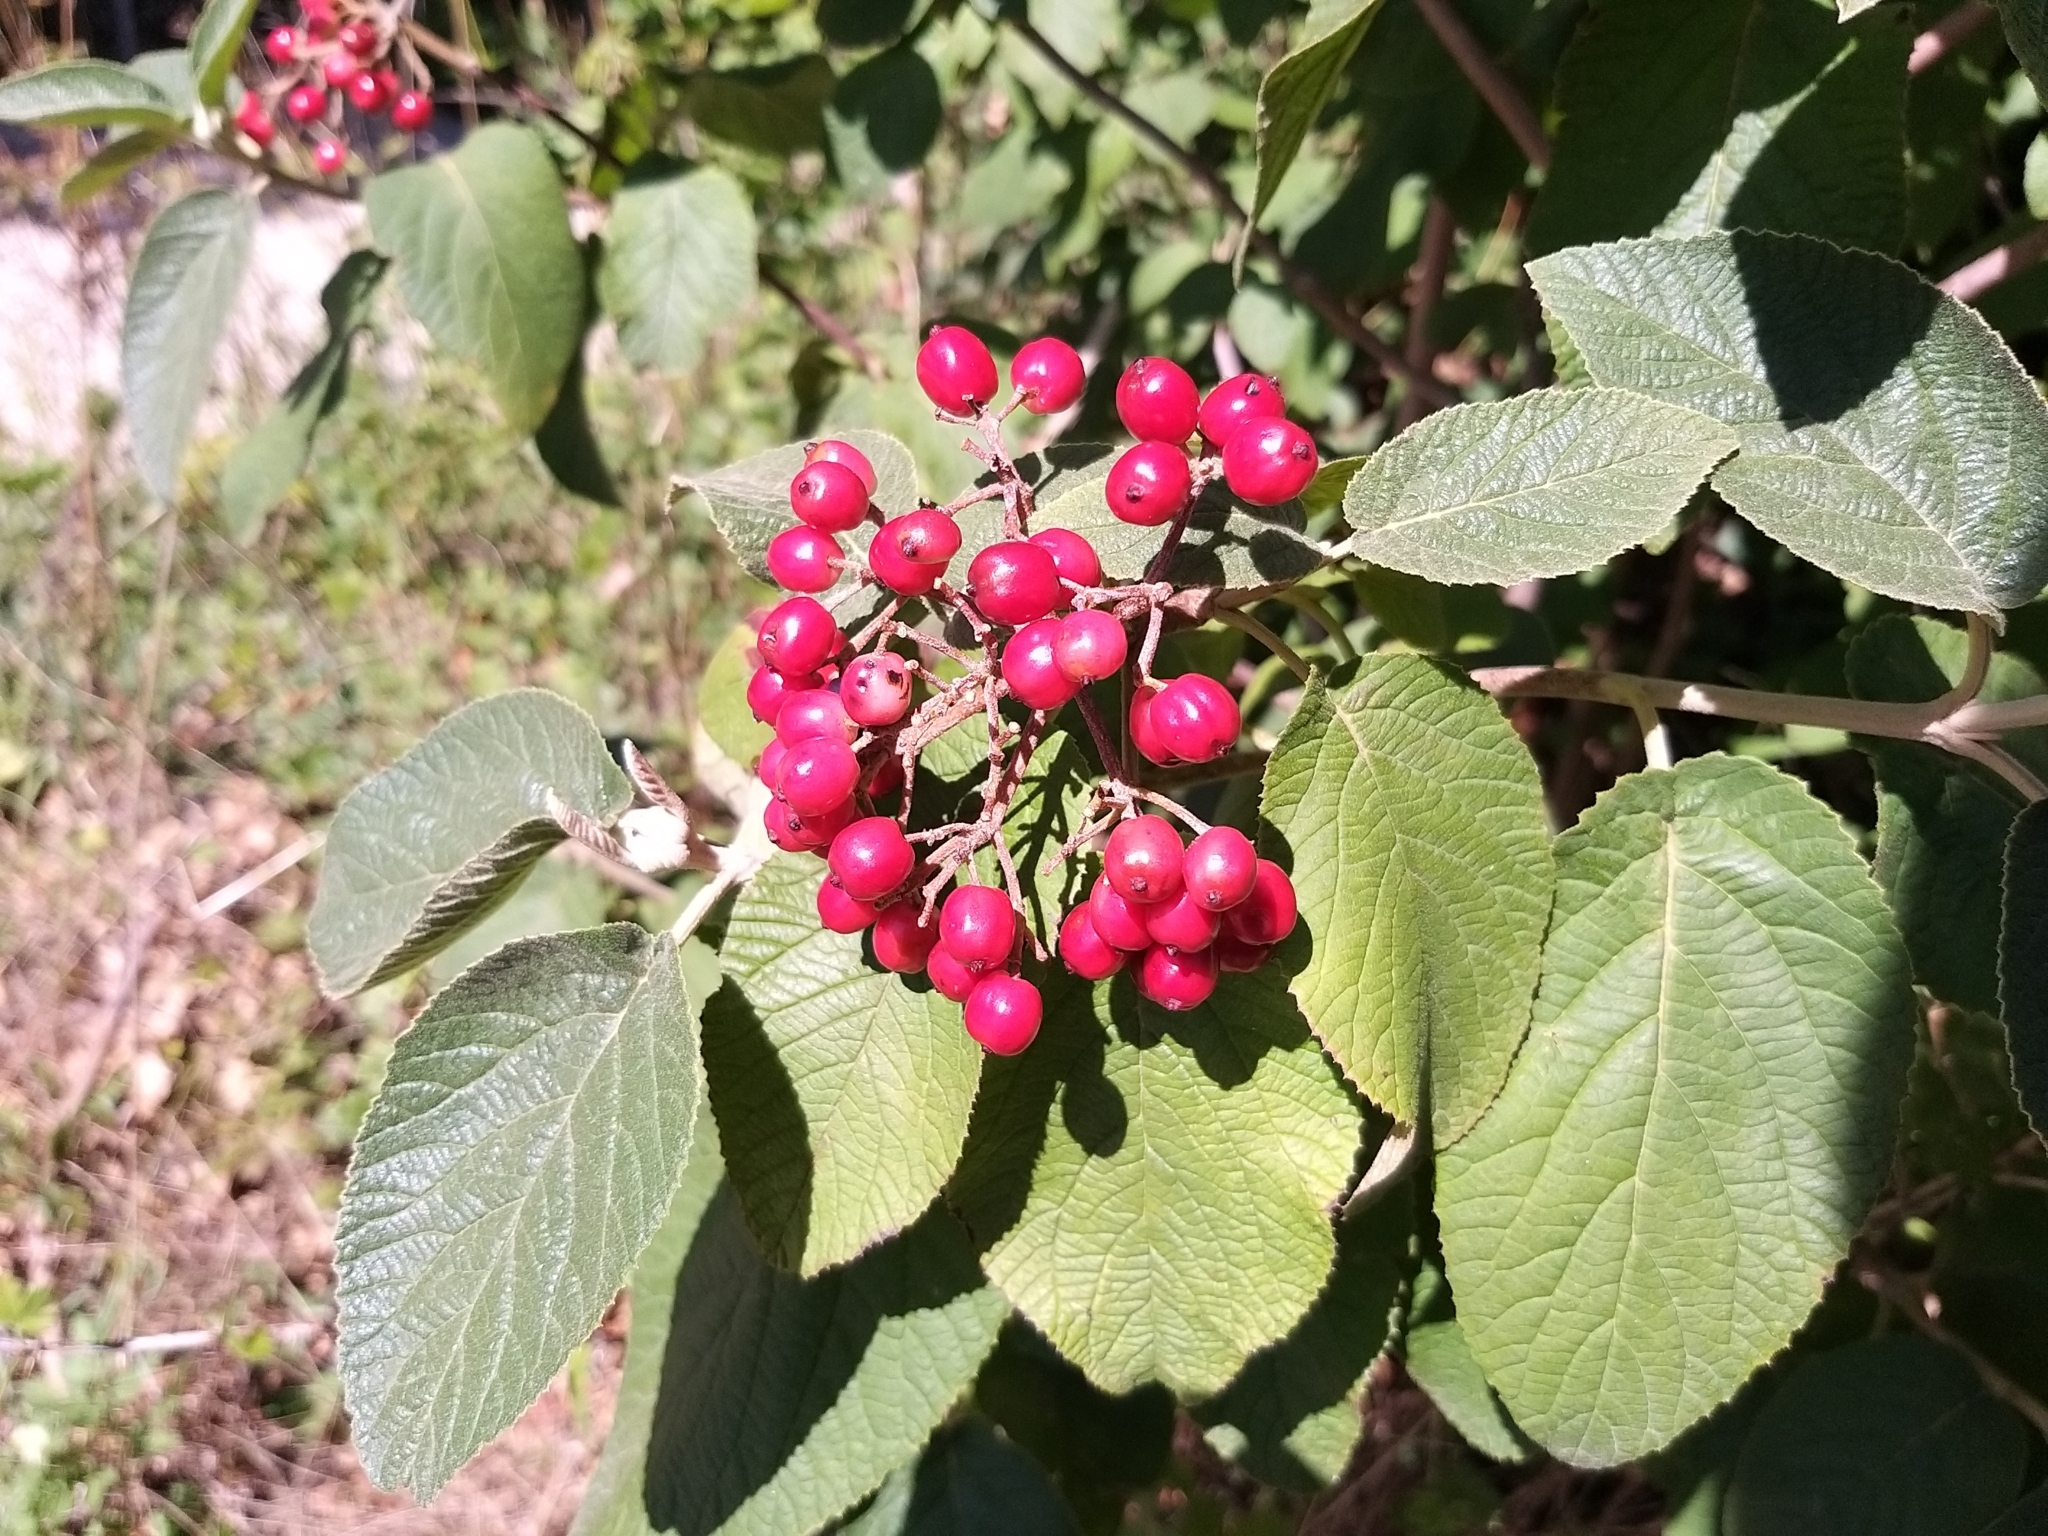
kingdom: Plantae
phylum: Tracheophyta
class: Magnoliopsida
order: Dipsacales
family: Viburnaceae
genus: Viburnum
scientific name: Viburnum lantana
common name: Wayfaring tree
